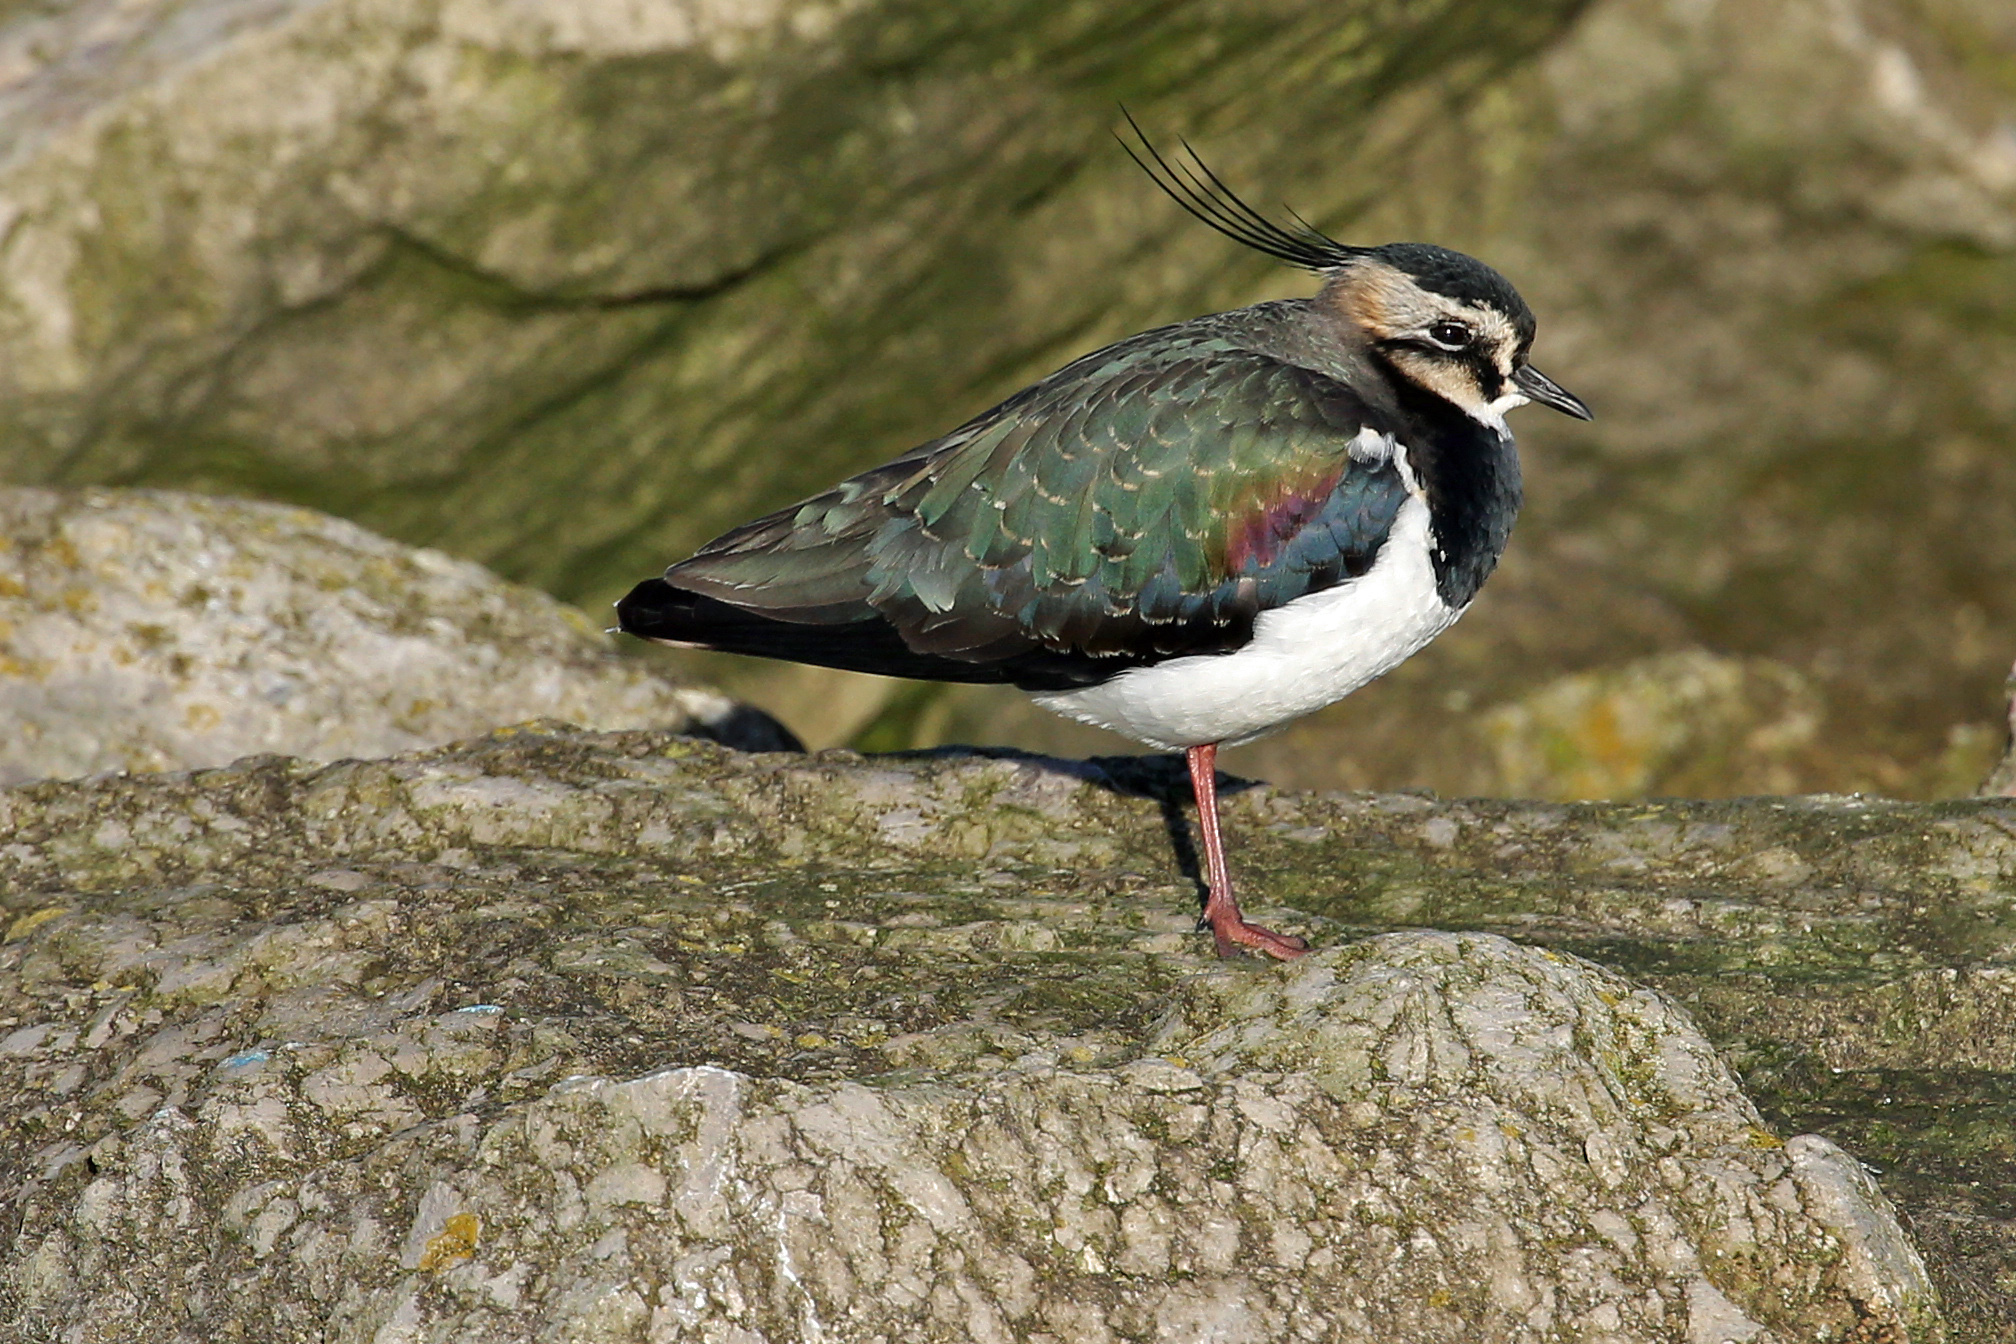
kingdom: Animalia
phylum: Chordata
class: Aves
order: Charadriiformes
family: Charadriidae
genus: Vanellus
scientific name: Vanellus vanellus
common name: Northern lapwing
